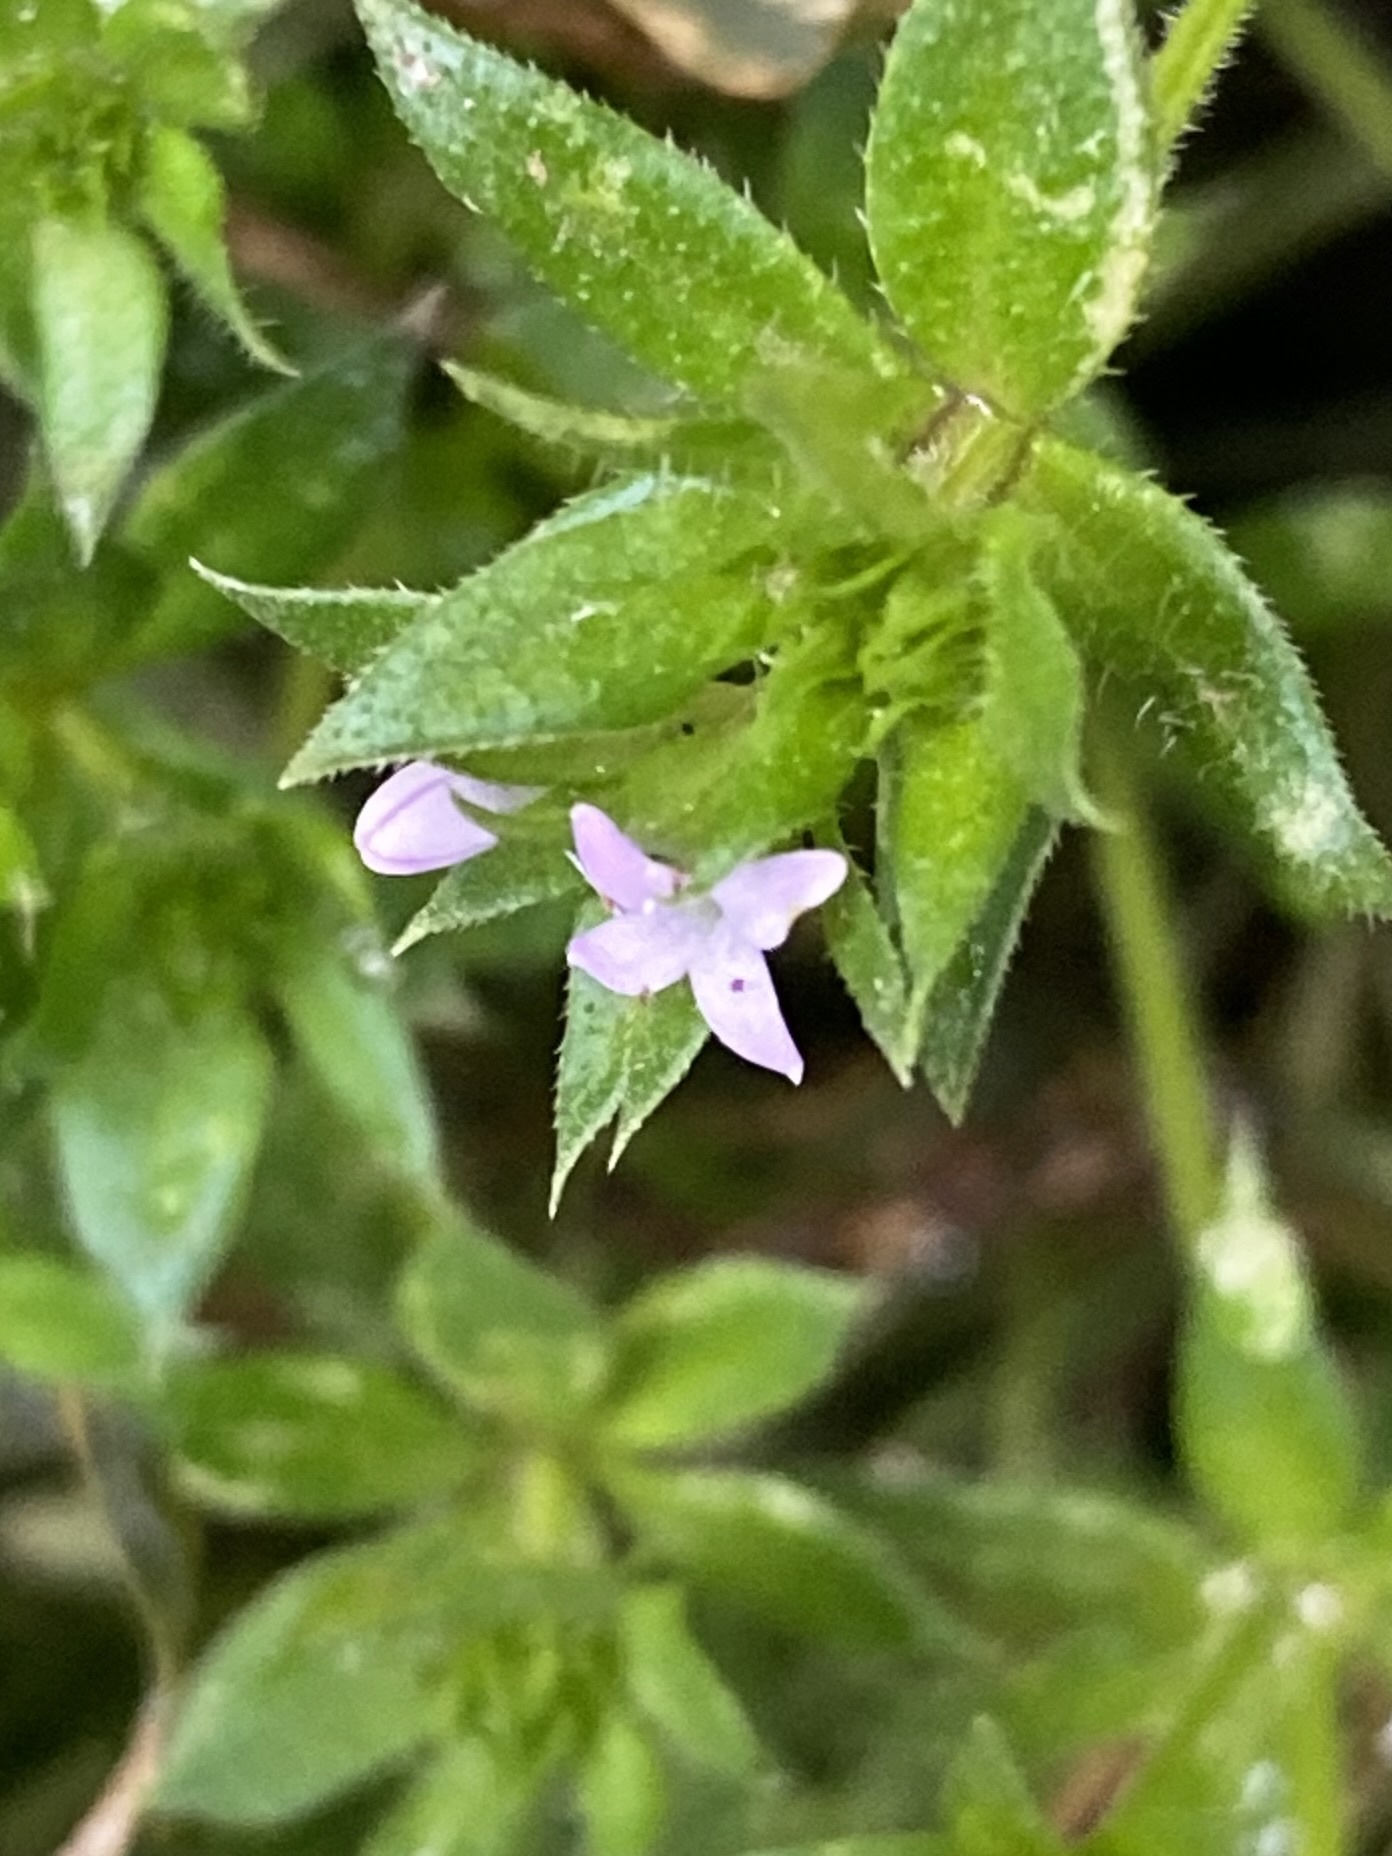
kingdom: Plantae
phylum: Tracheophyta
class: Magnoliopsida
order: Gentianales
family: Rubiaceae
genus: Sherardia
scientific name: Sherardia arvensis
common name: Field madder
